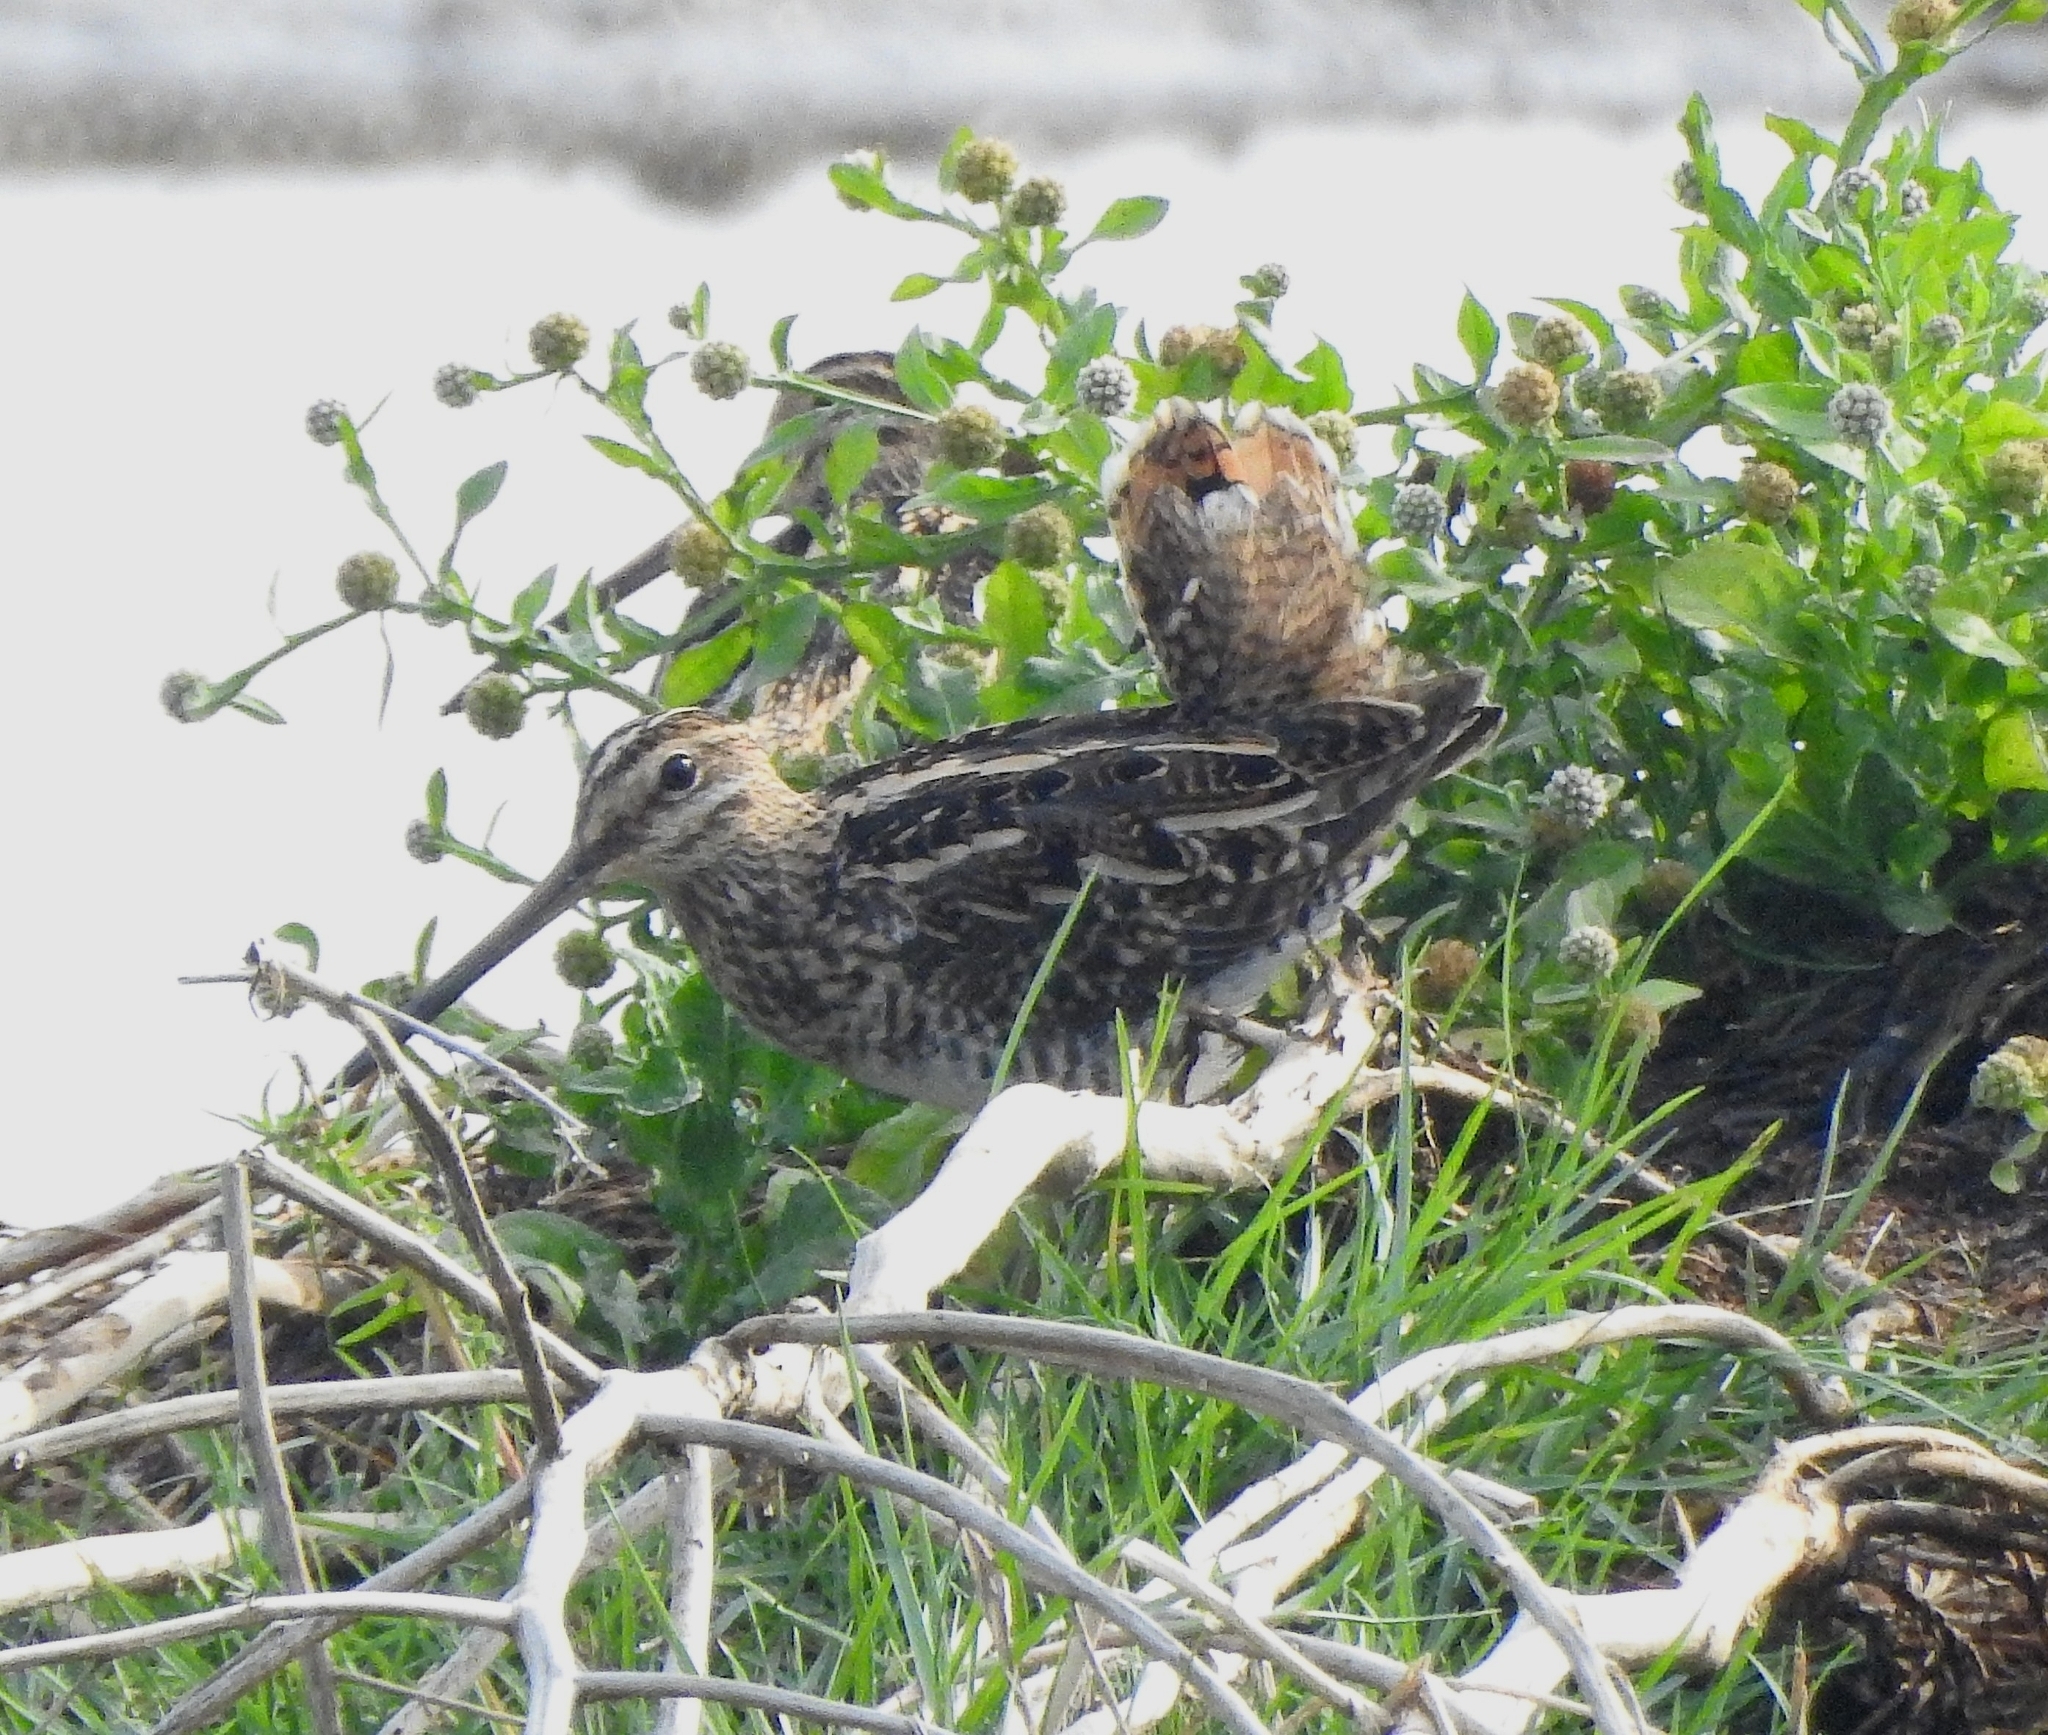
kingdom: Animalia
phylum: Chordata
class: Aves
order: Charadriiformes
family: Scolopacidae
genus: Gallinago
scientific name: Gallinago gallinago
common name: Common snipe
